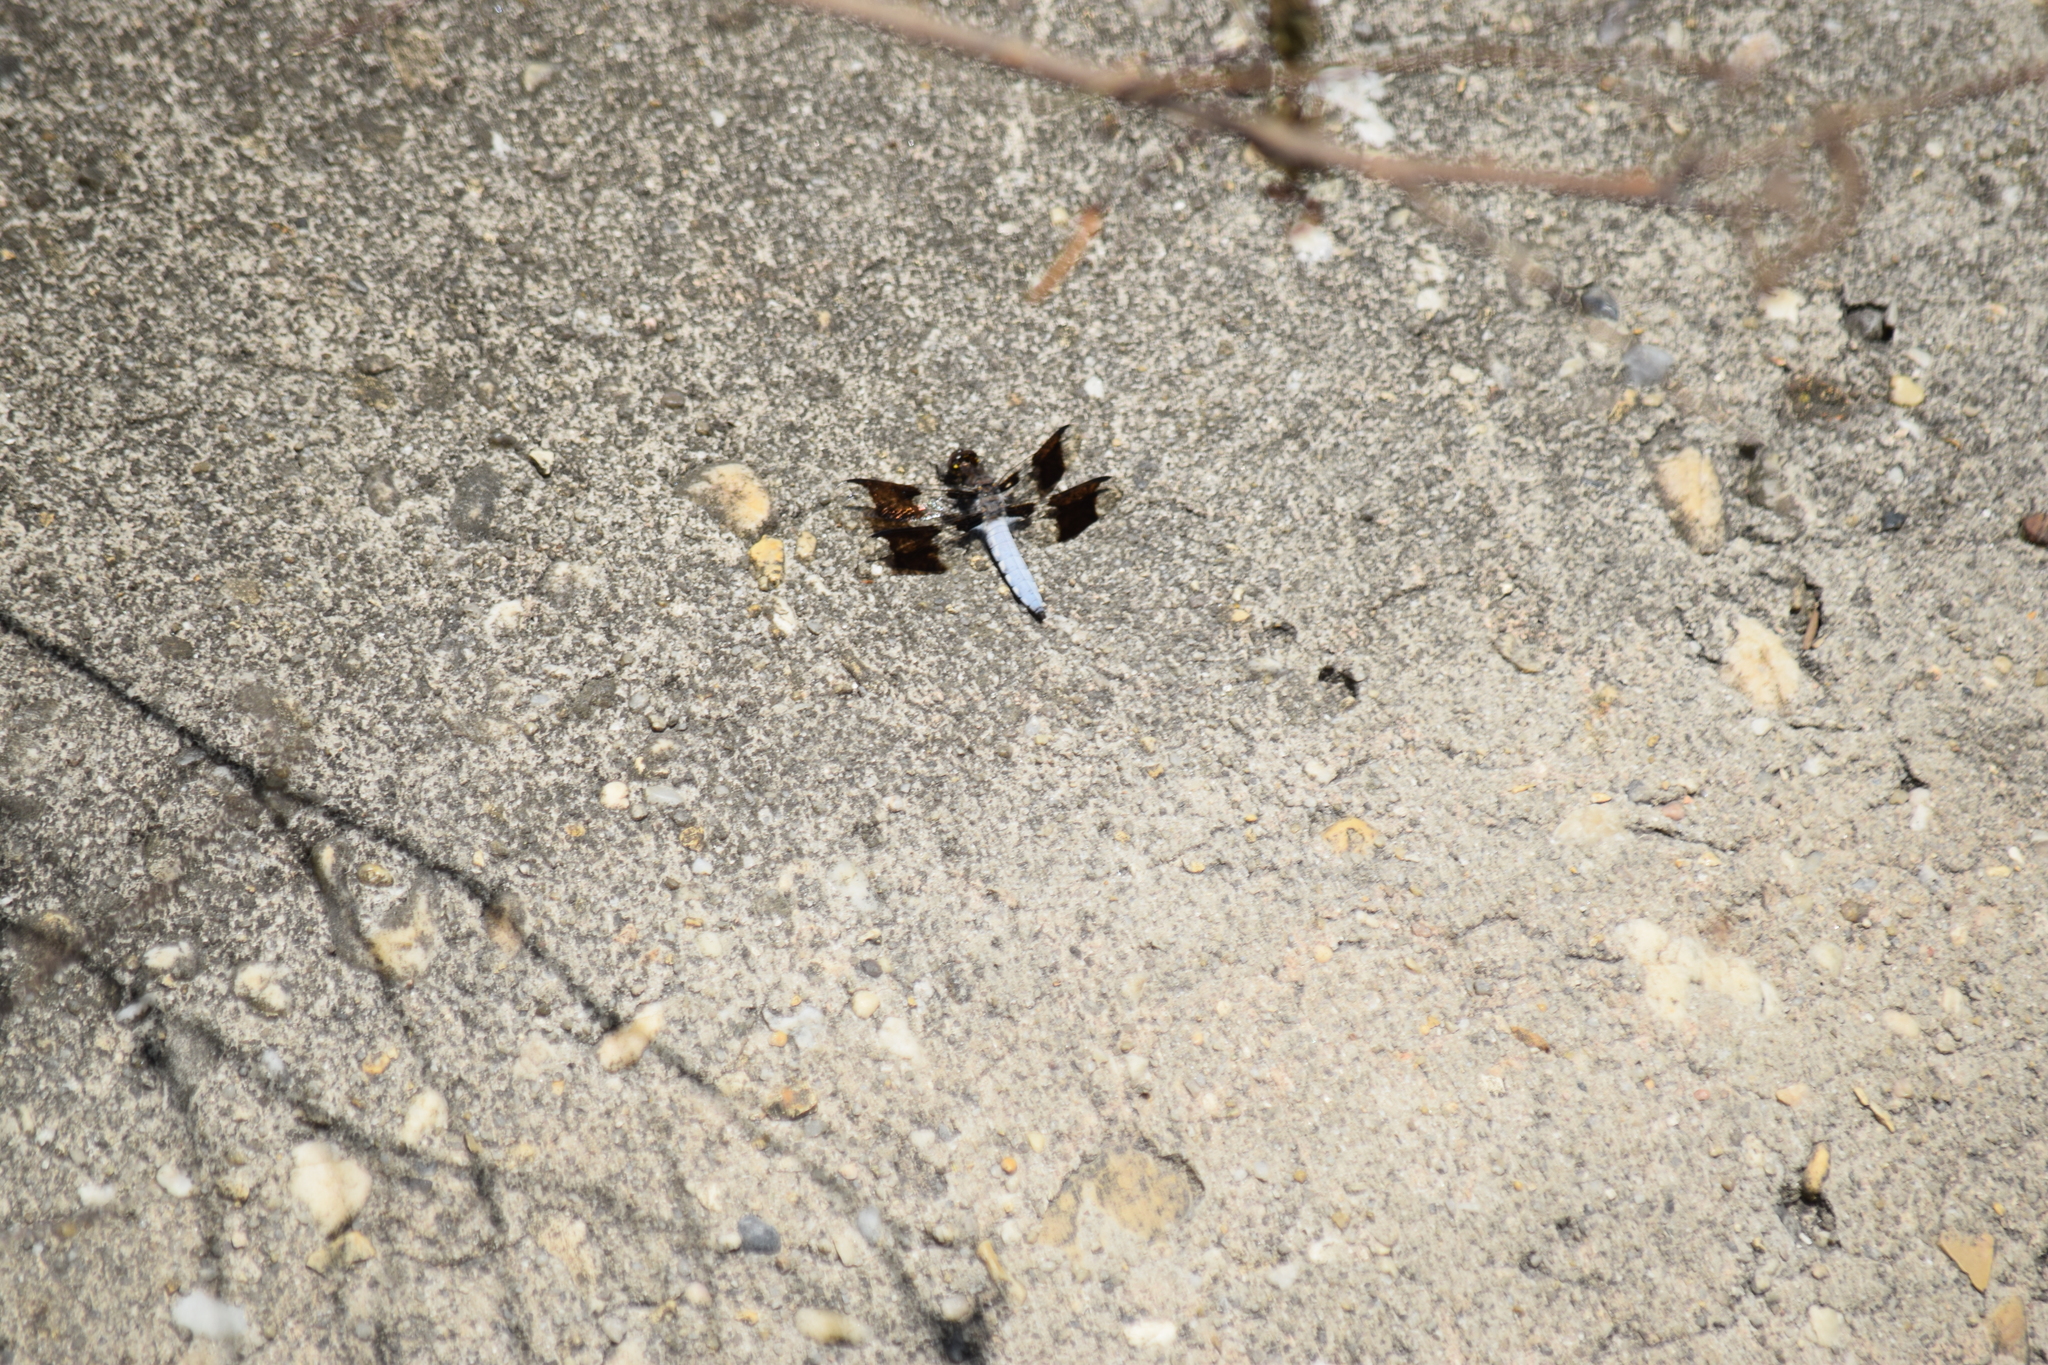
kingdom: Animalia
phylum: Arthropoda
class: Insecta
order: Odonata
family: Libellulidae
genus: Plathemis
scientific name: Plathemis lydia
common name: Common whitetail
